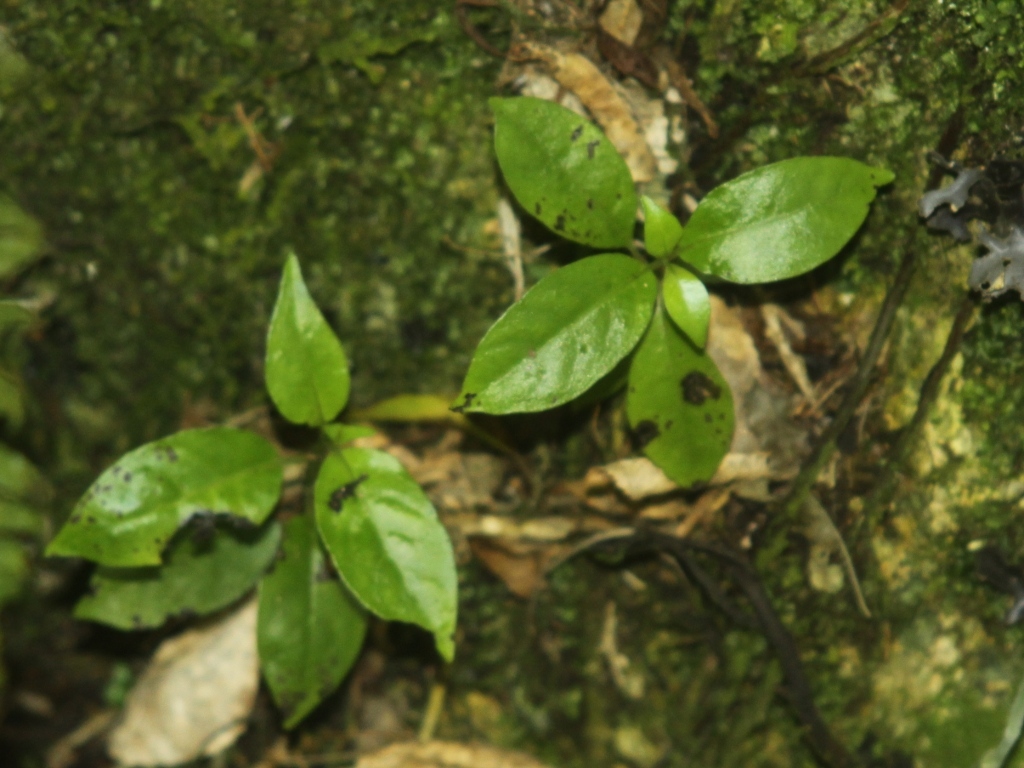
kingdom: Plantae
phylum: Tracheophyta
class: Magnoliopsida
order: Gentianales
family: Loganiaceae
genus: Geniostoma
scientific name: Geniostoma ligustrifolium
